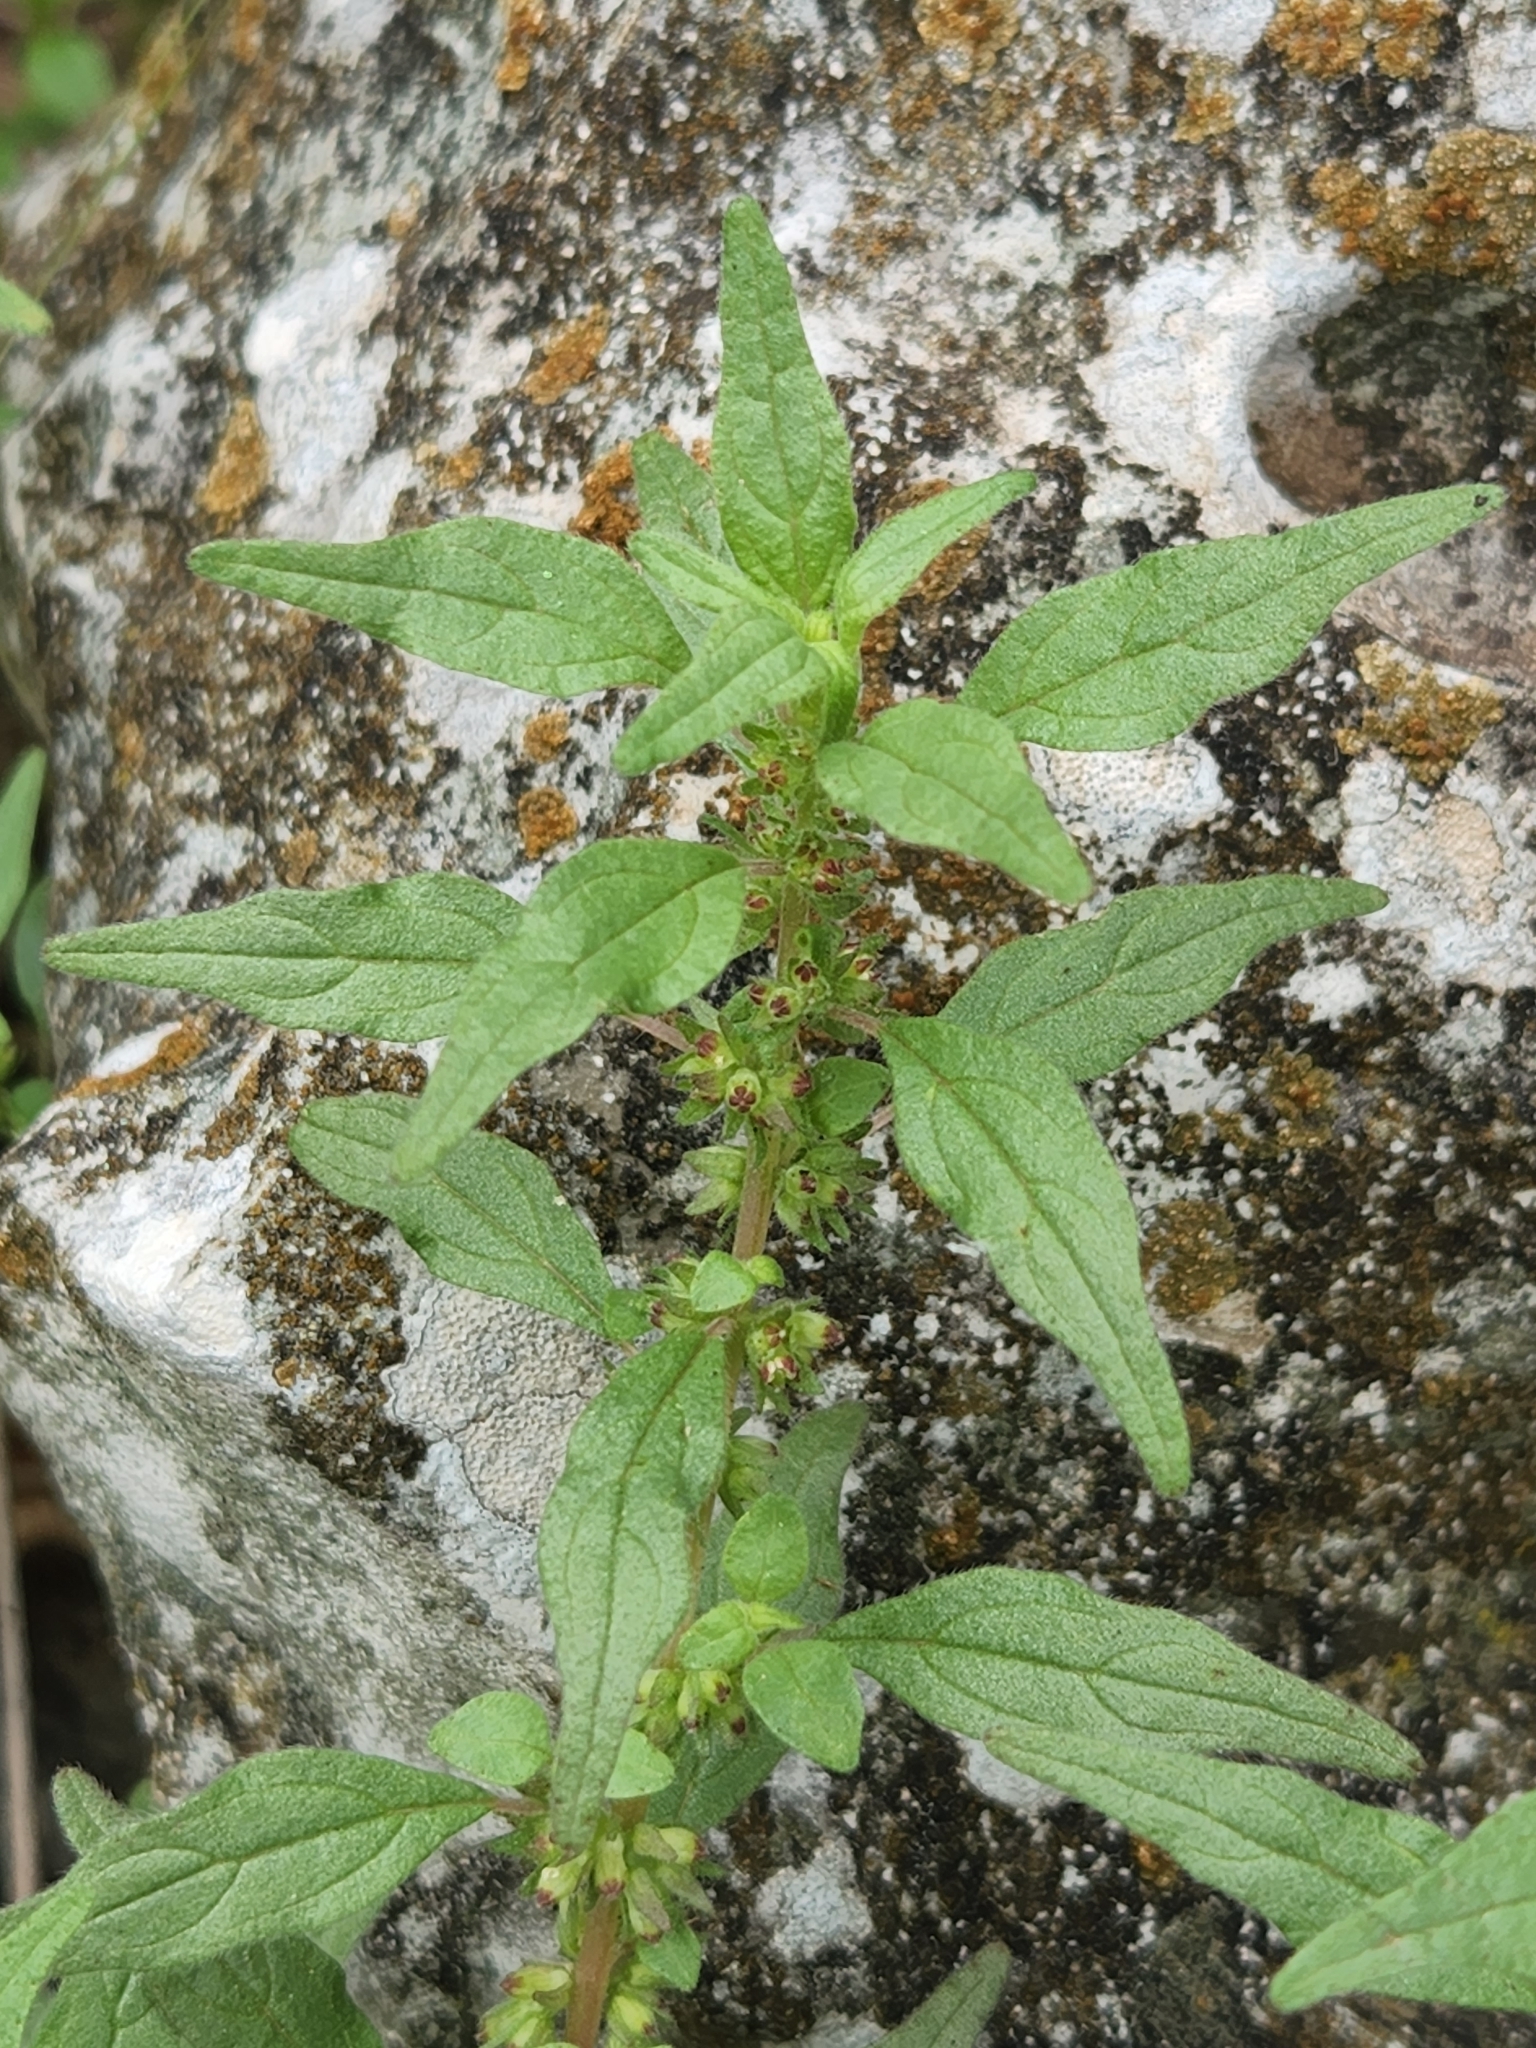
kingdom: Plantae
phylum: Tracheophyta
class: Magnoliopsida
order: Rosales
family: Urticaceae
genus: Parietaria
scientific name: Parietaria pensylvanica
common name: Pennsylvania pellitory
